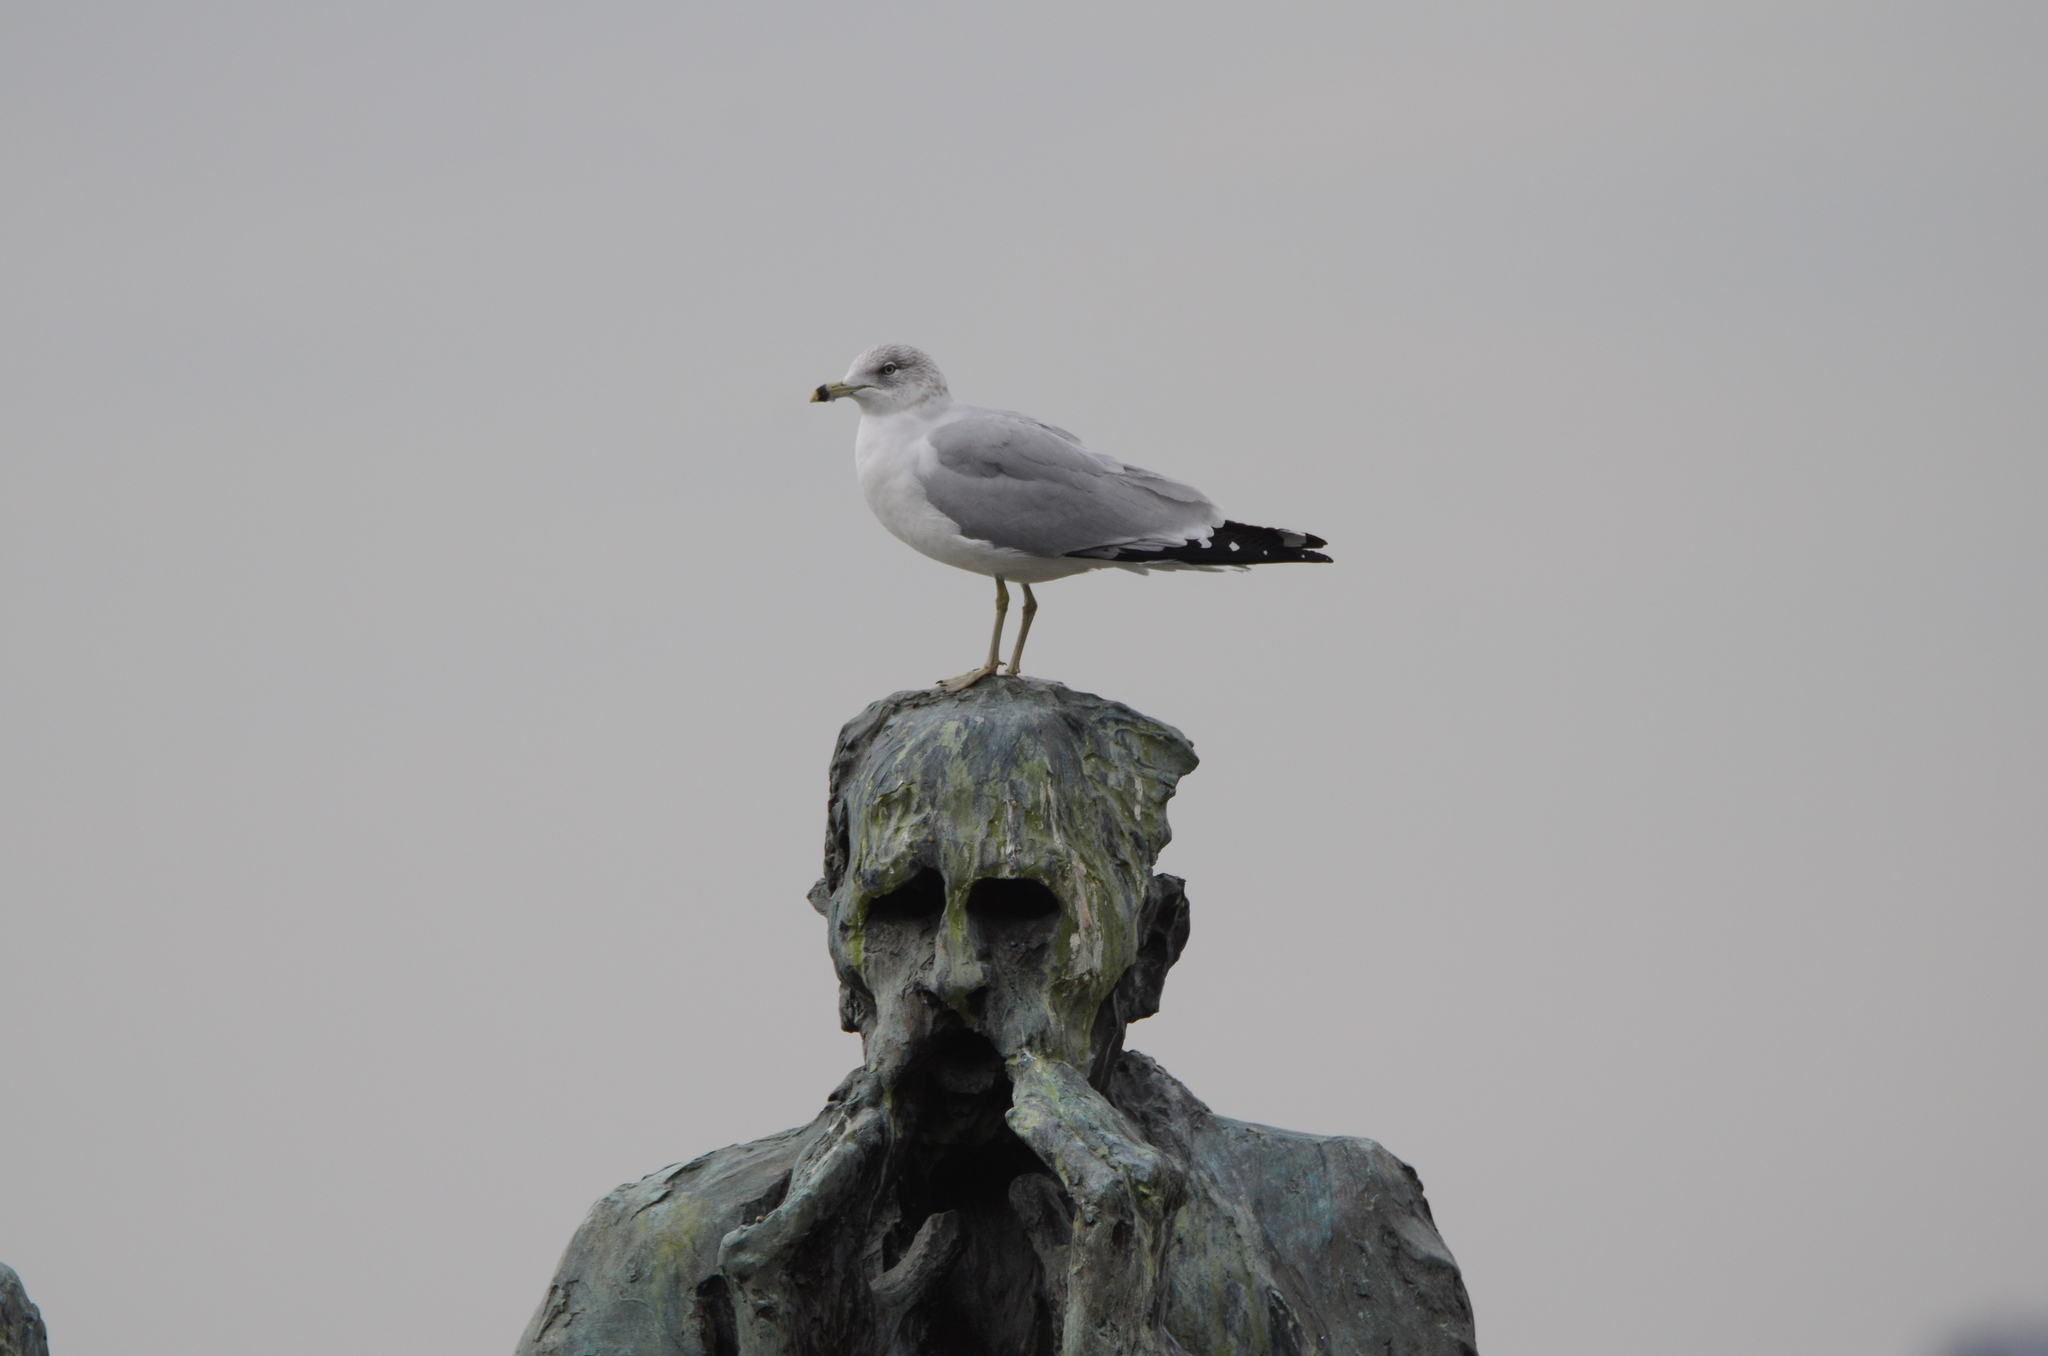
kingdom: Animalia
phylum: Chordata
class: Aves
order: Charadriiformes
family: Laridae
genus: Larus
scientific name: Larus delawarensis
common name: Ring-billed gull
